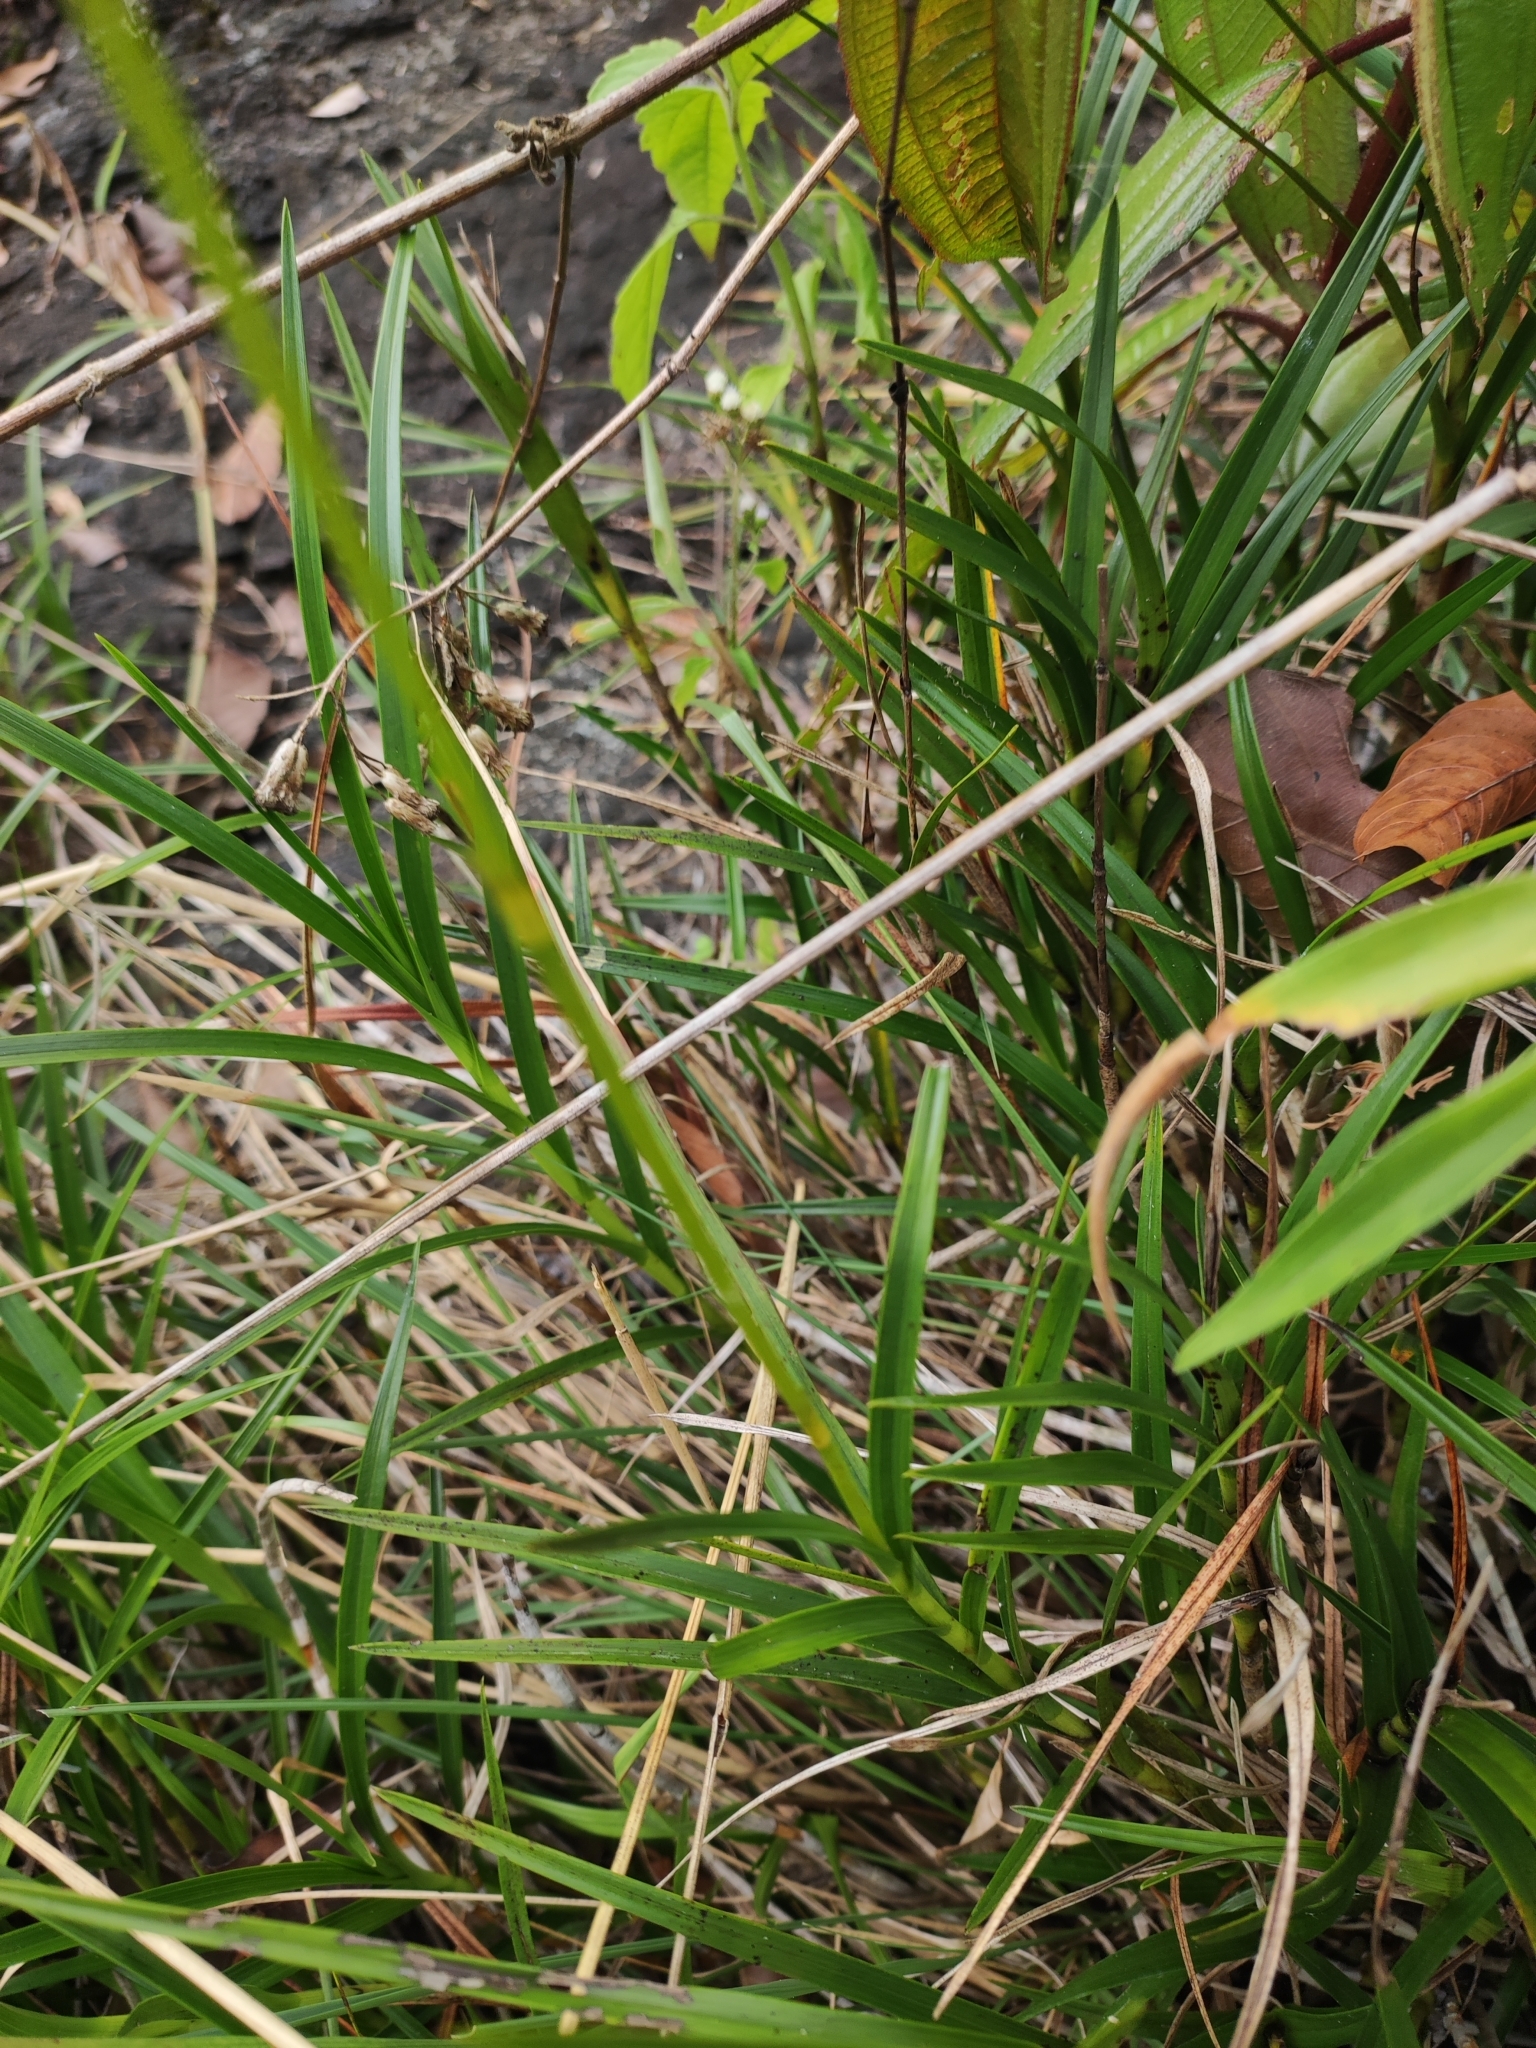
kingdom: Plantae
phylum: Tracheophyta
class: Liliopsida
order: Asparagales
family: Orchidaceae
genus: Arundina
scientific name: Arundina graminifolia
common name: Bamboo orchid
